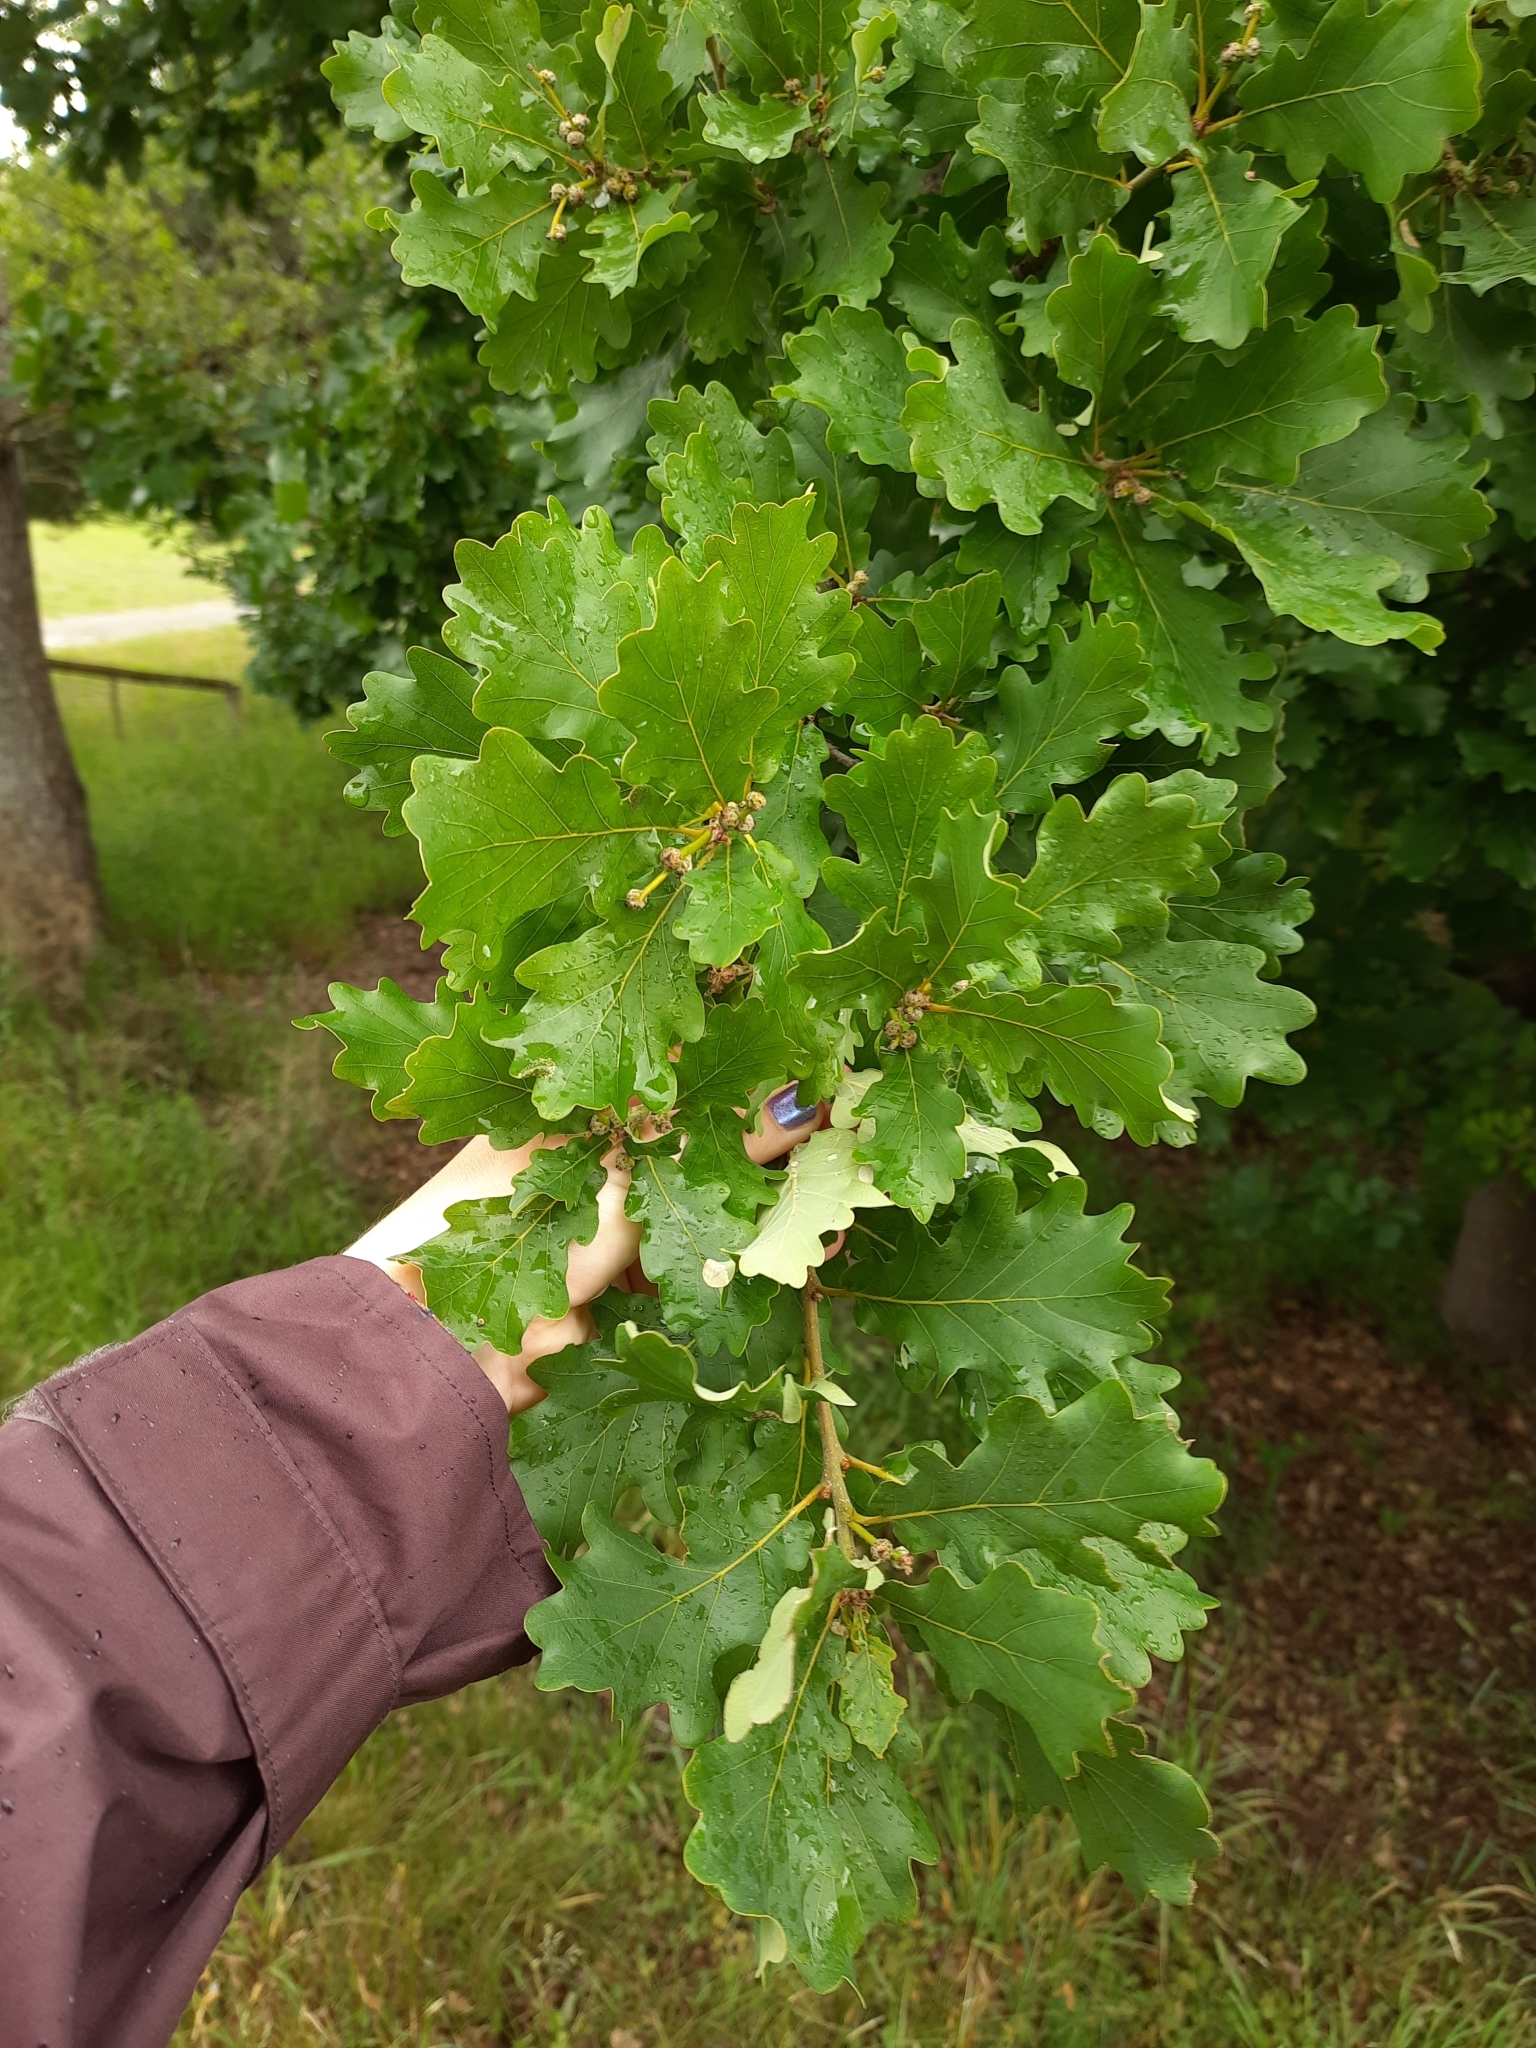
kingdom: Plantae
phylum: Tracheophyta
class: Magnoliopsida
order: Fagales
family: Fagaceae
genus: Quercus
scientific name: Quercus robur
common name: Pedunculate oak
